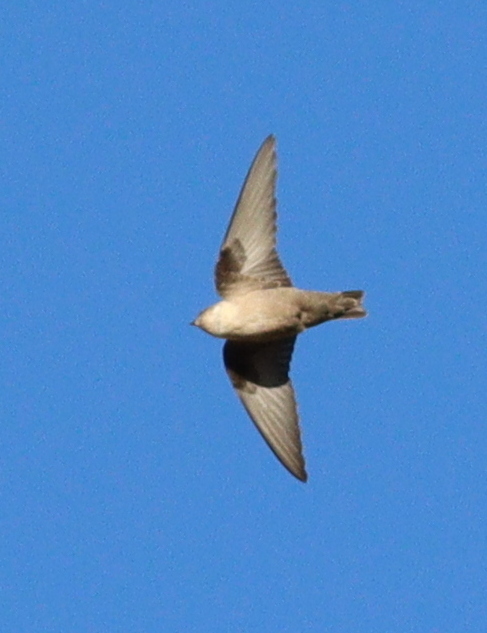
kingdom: Animalia
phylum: Chordata
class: Aves
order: Passeriformes
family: Hirundinidae
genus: Ptyonoprogne
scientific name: Ptyonoprogne rupestris
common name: Eurasian crag martin
